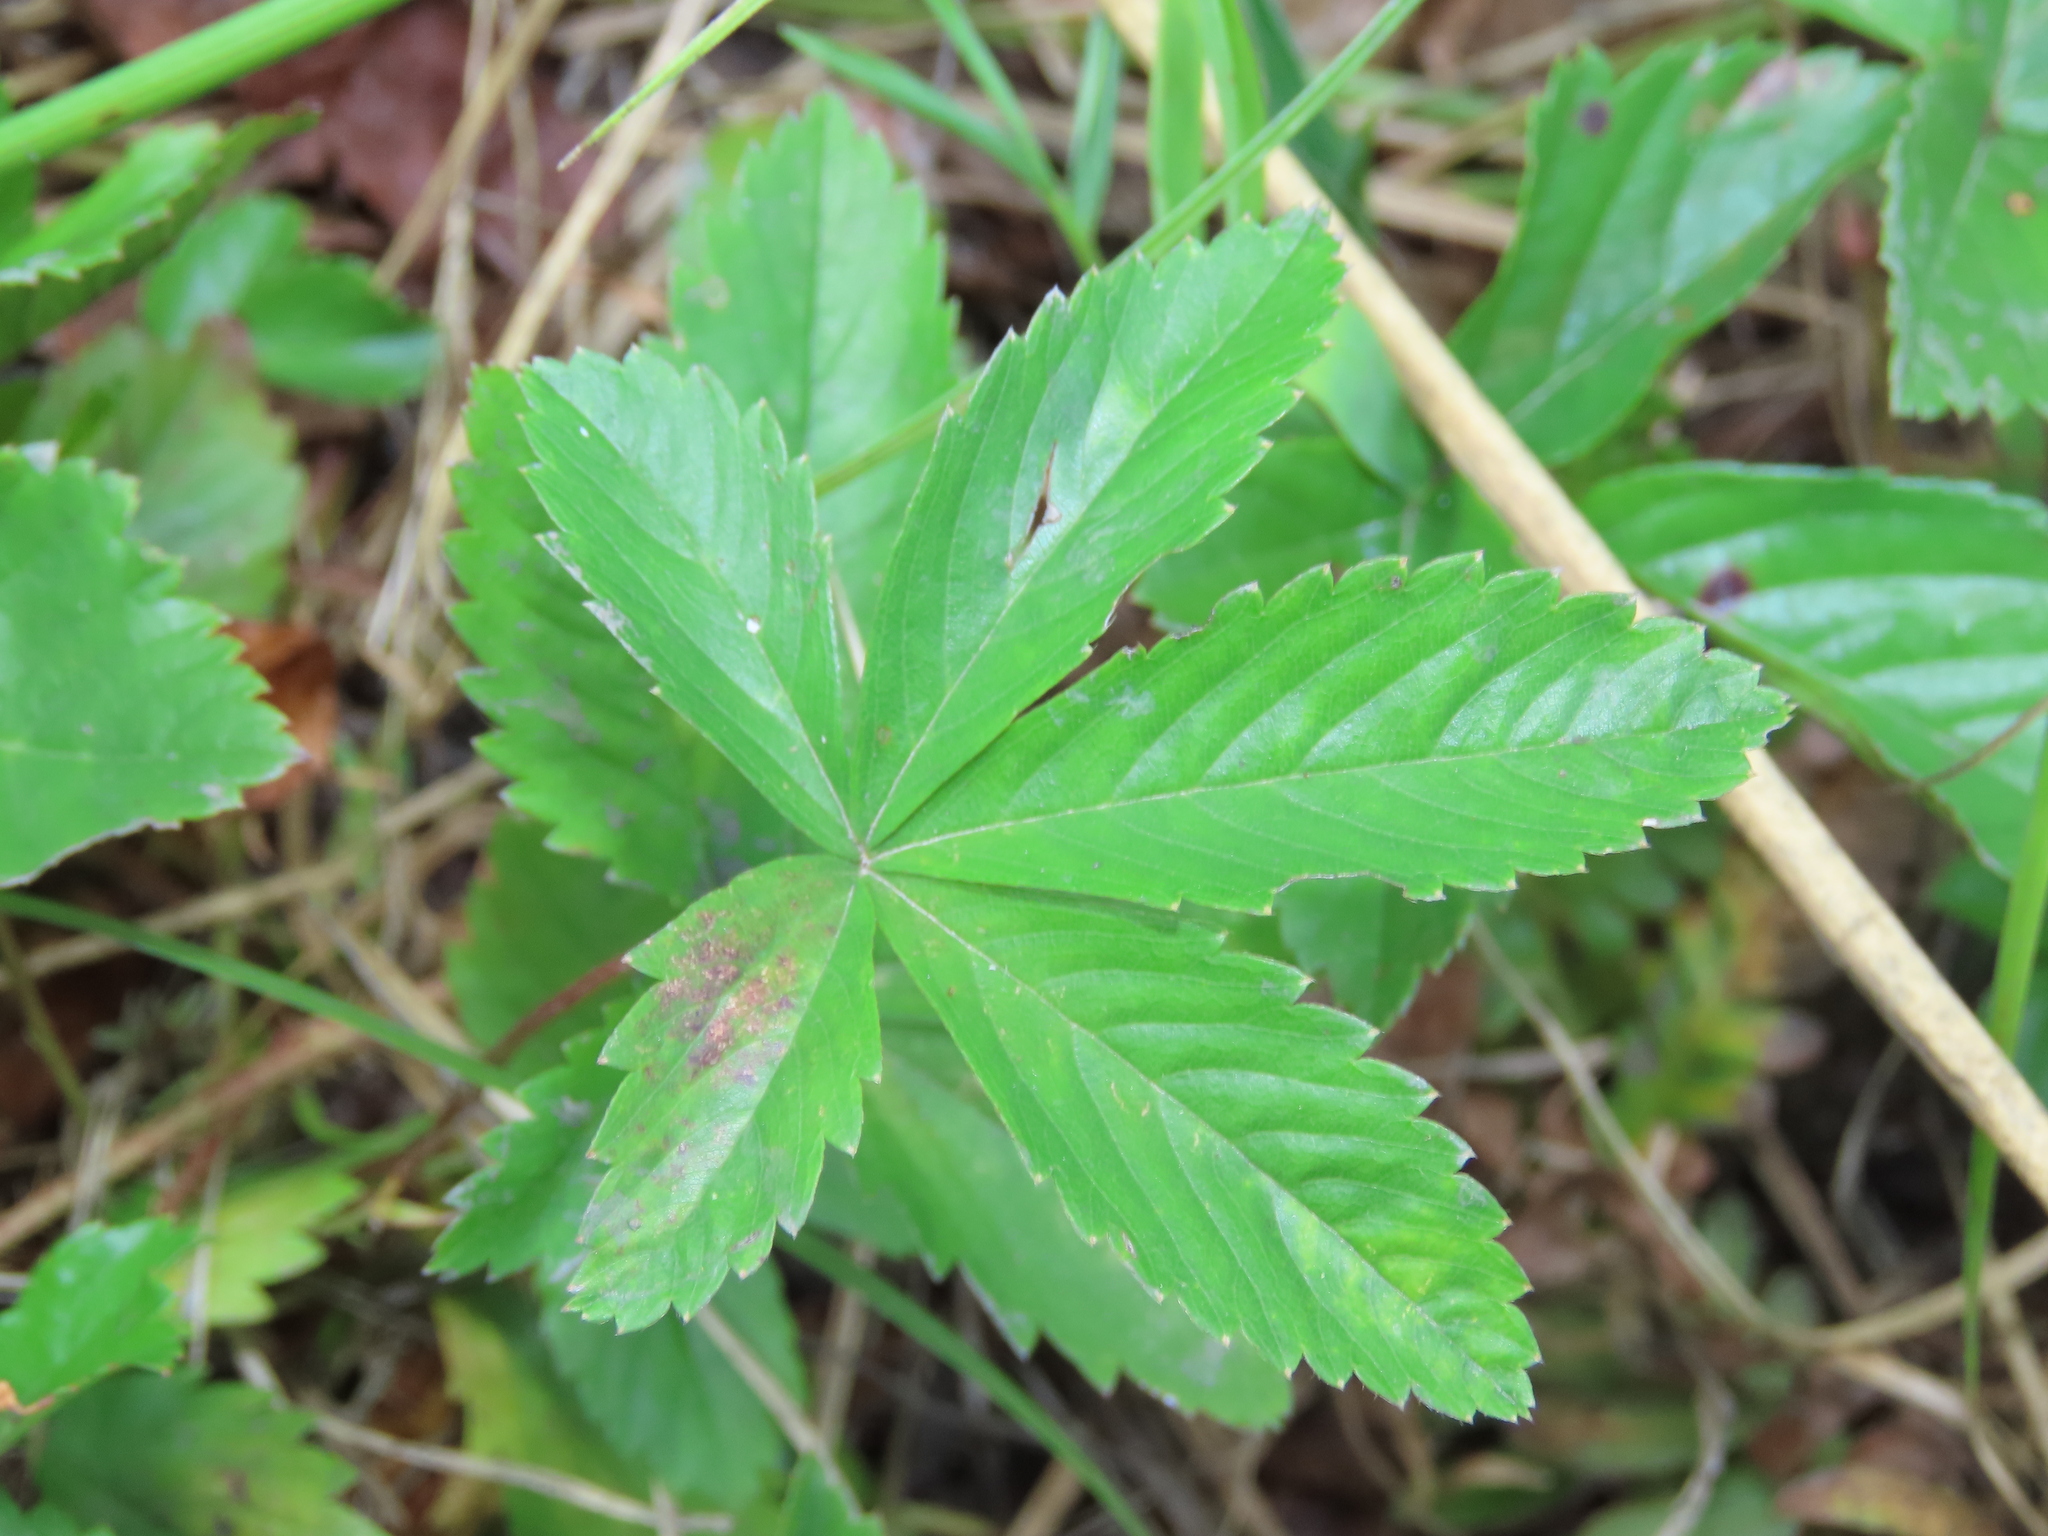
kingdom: Plantae
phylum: Tracheophyta
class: Magnoliopsida
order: Rosales
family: Rosaceae
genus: Potentilla
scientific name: Potentilla simplex
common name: Old field cinquefoil
